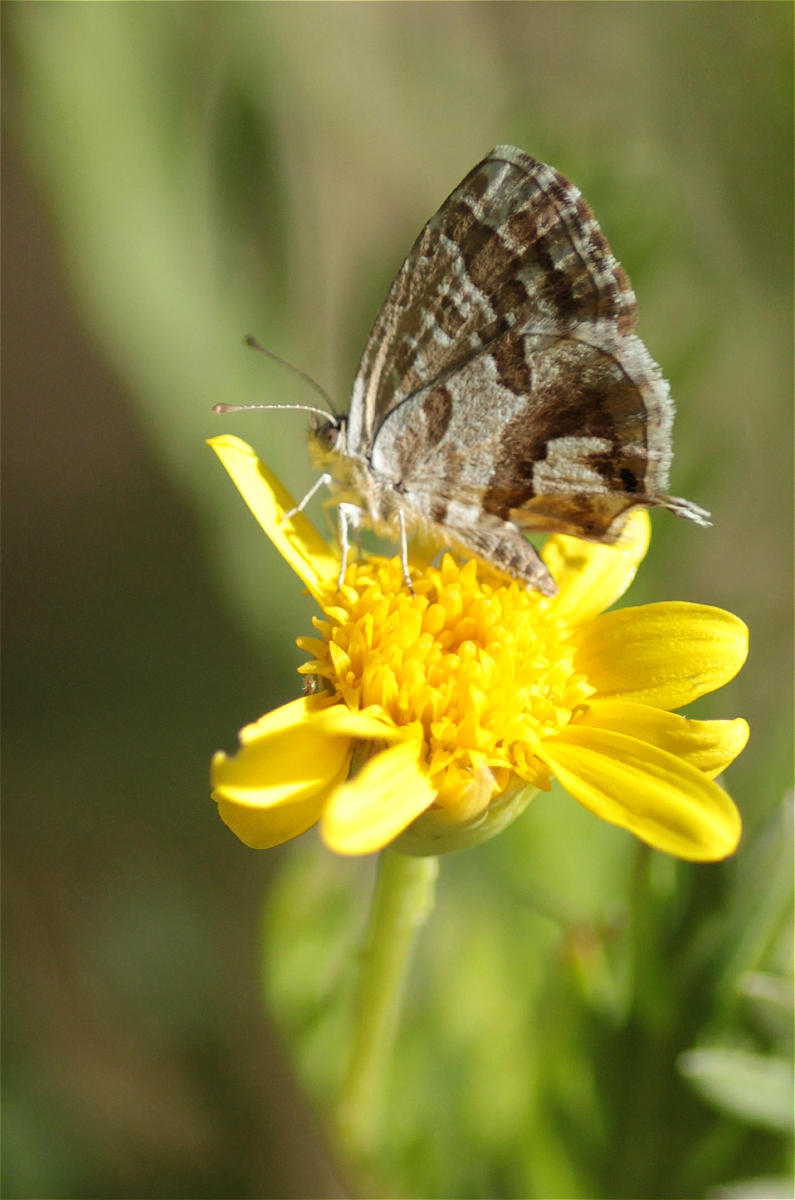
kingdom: Animalia
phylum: Arthropoda
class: Insecta
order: Lepidoptera
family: Lycaenidae
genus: Cacyreus
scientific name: Cacyreus marshalli
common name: Geranium bronze
